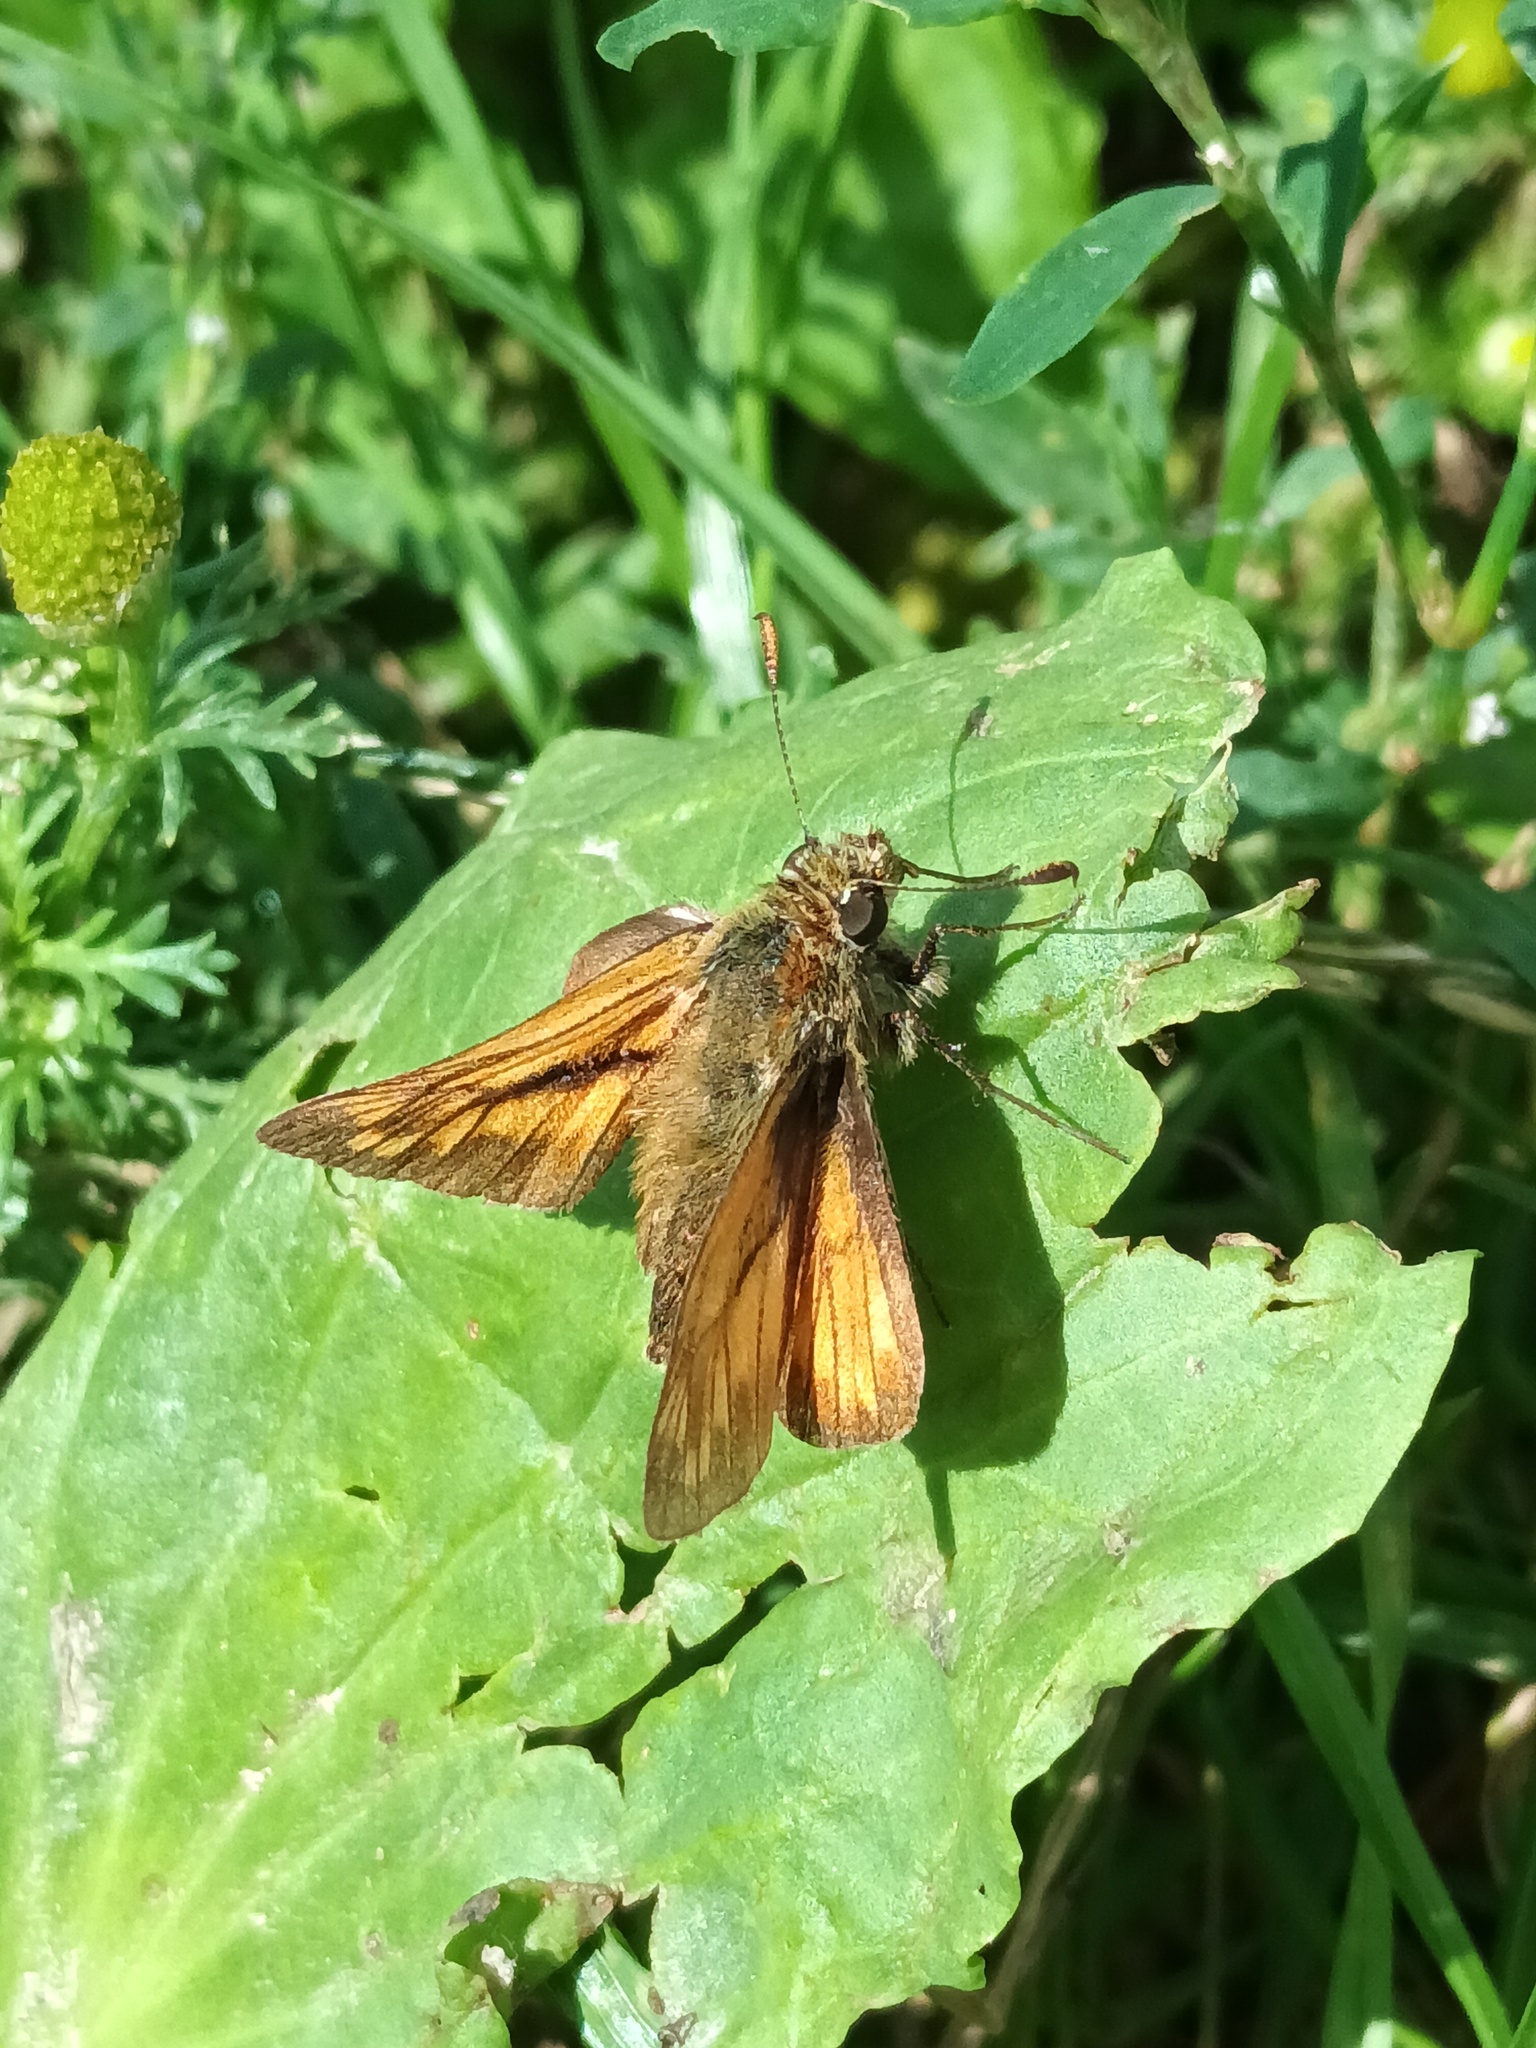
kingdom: Animalia
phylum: Arthropoda
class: Insecta
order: Lepidoptera
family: Hesperiidae
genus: Ochlodes
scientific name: Ochlodes venata
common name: Large skipper
